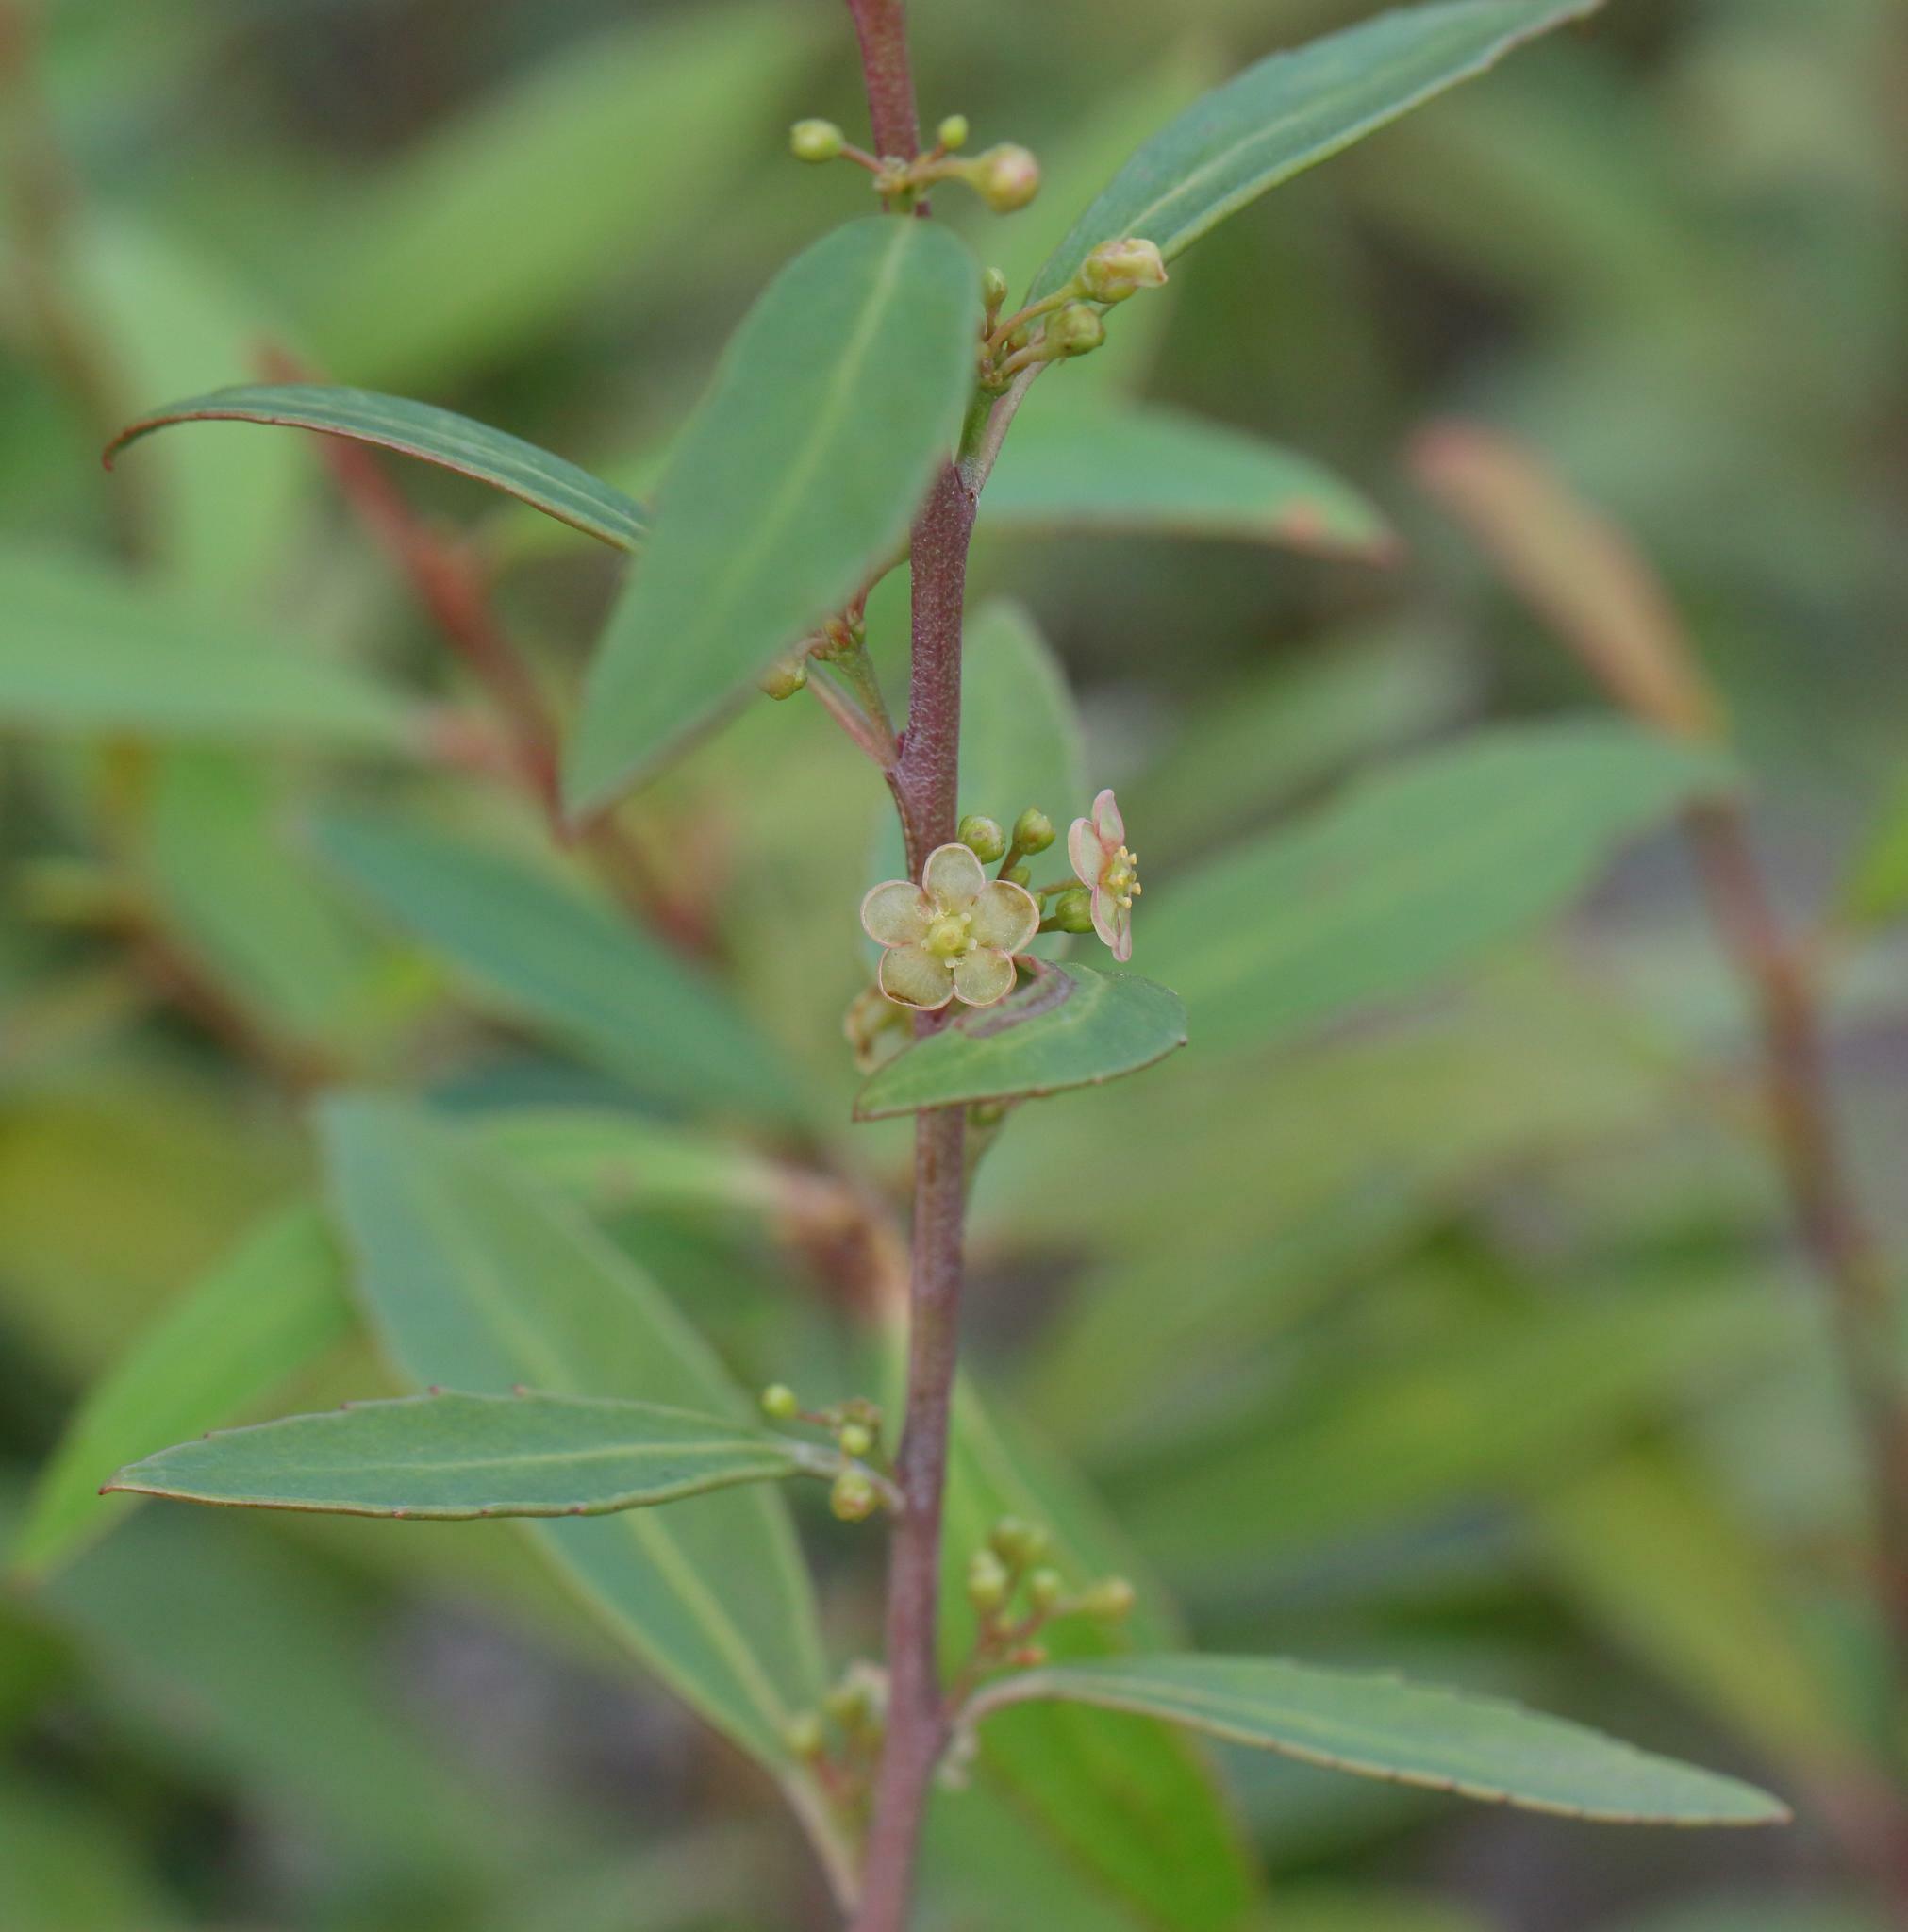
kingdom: Plantae
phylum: Tracheophyta
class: Magnoliopsida
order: Celastrales
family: Celastraceae
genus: Gymnosporia
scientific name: Gymnosporia acuminata
